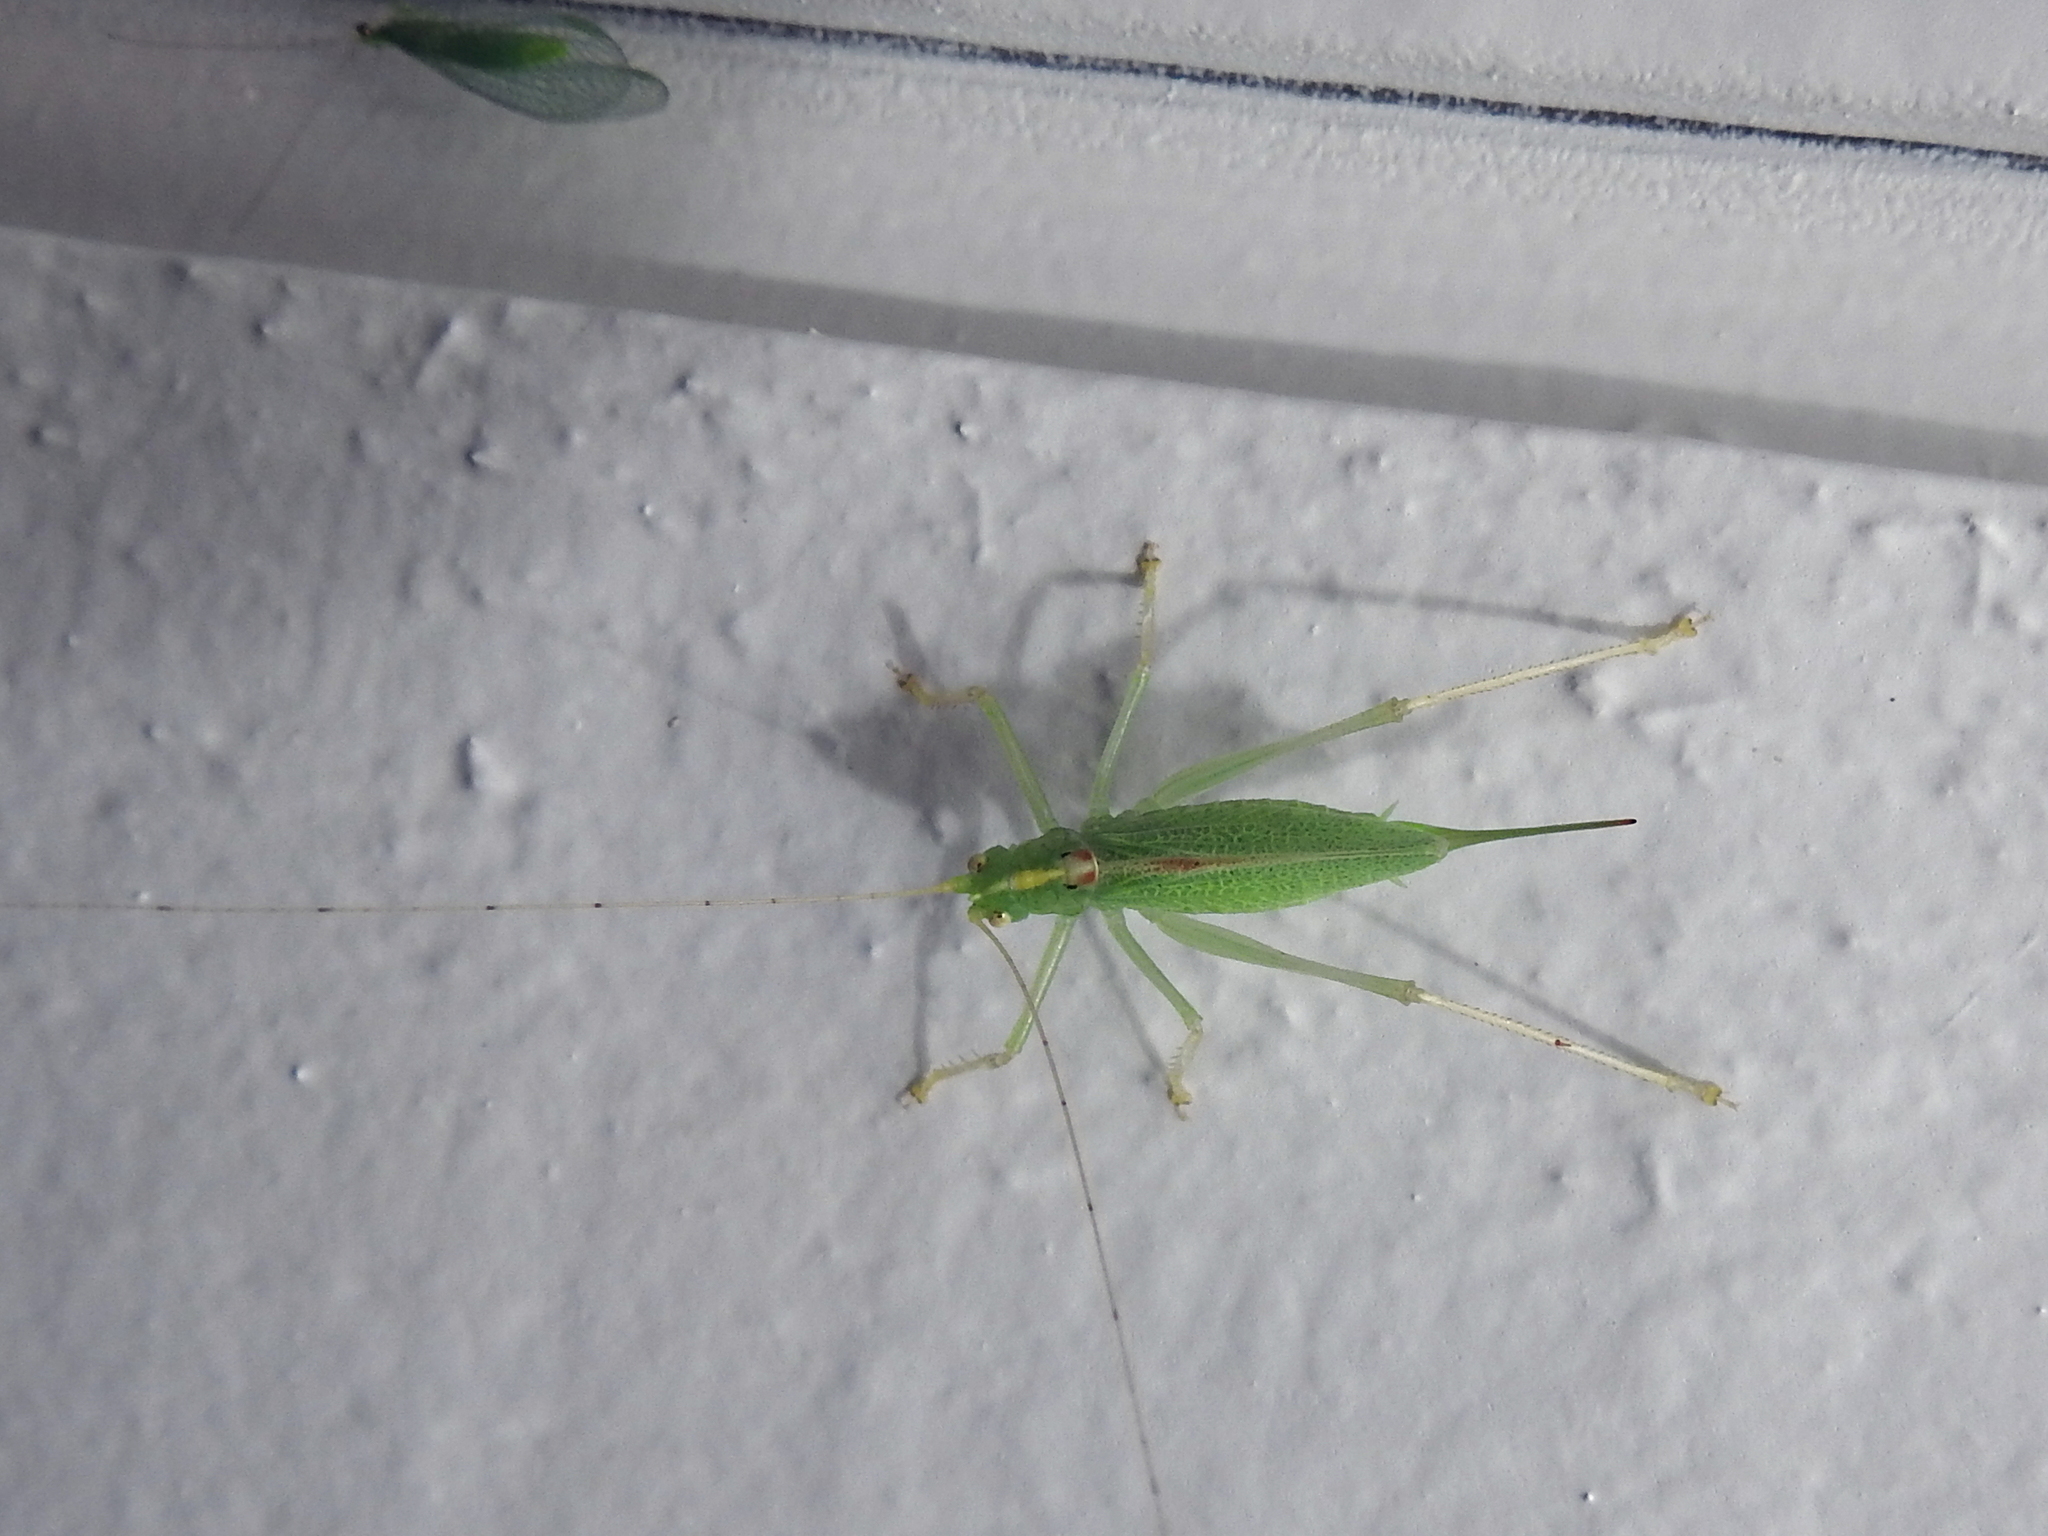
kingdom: Animalia
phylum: Arthropoda
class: Insecta
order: Orthoptera
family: Tettigoniidae
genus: Meconema
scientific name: Meconema thalassinum
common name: Oak bush-cricket
